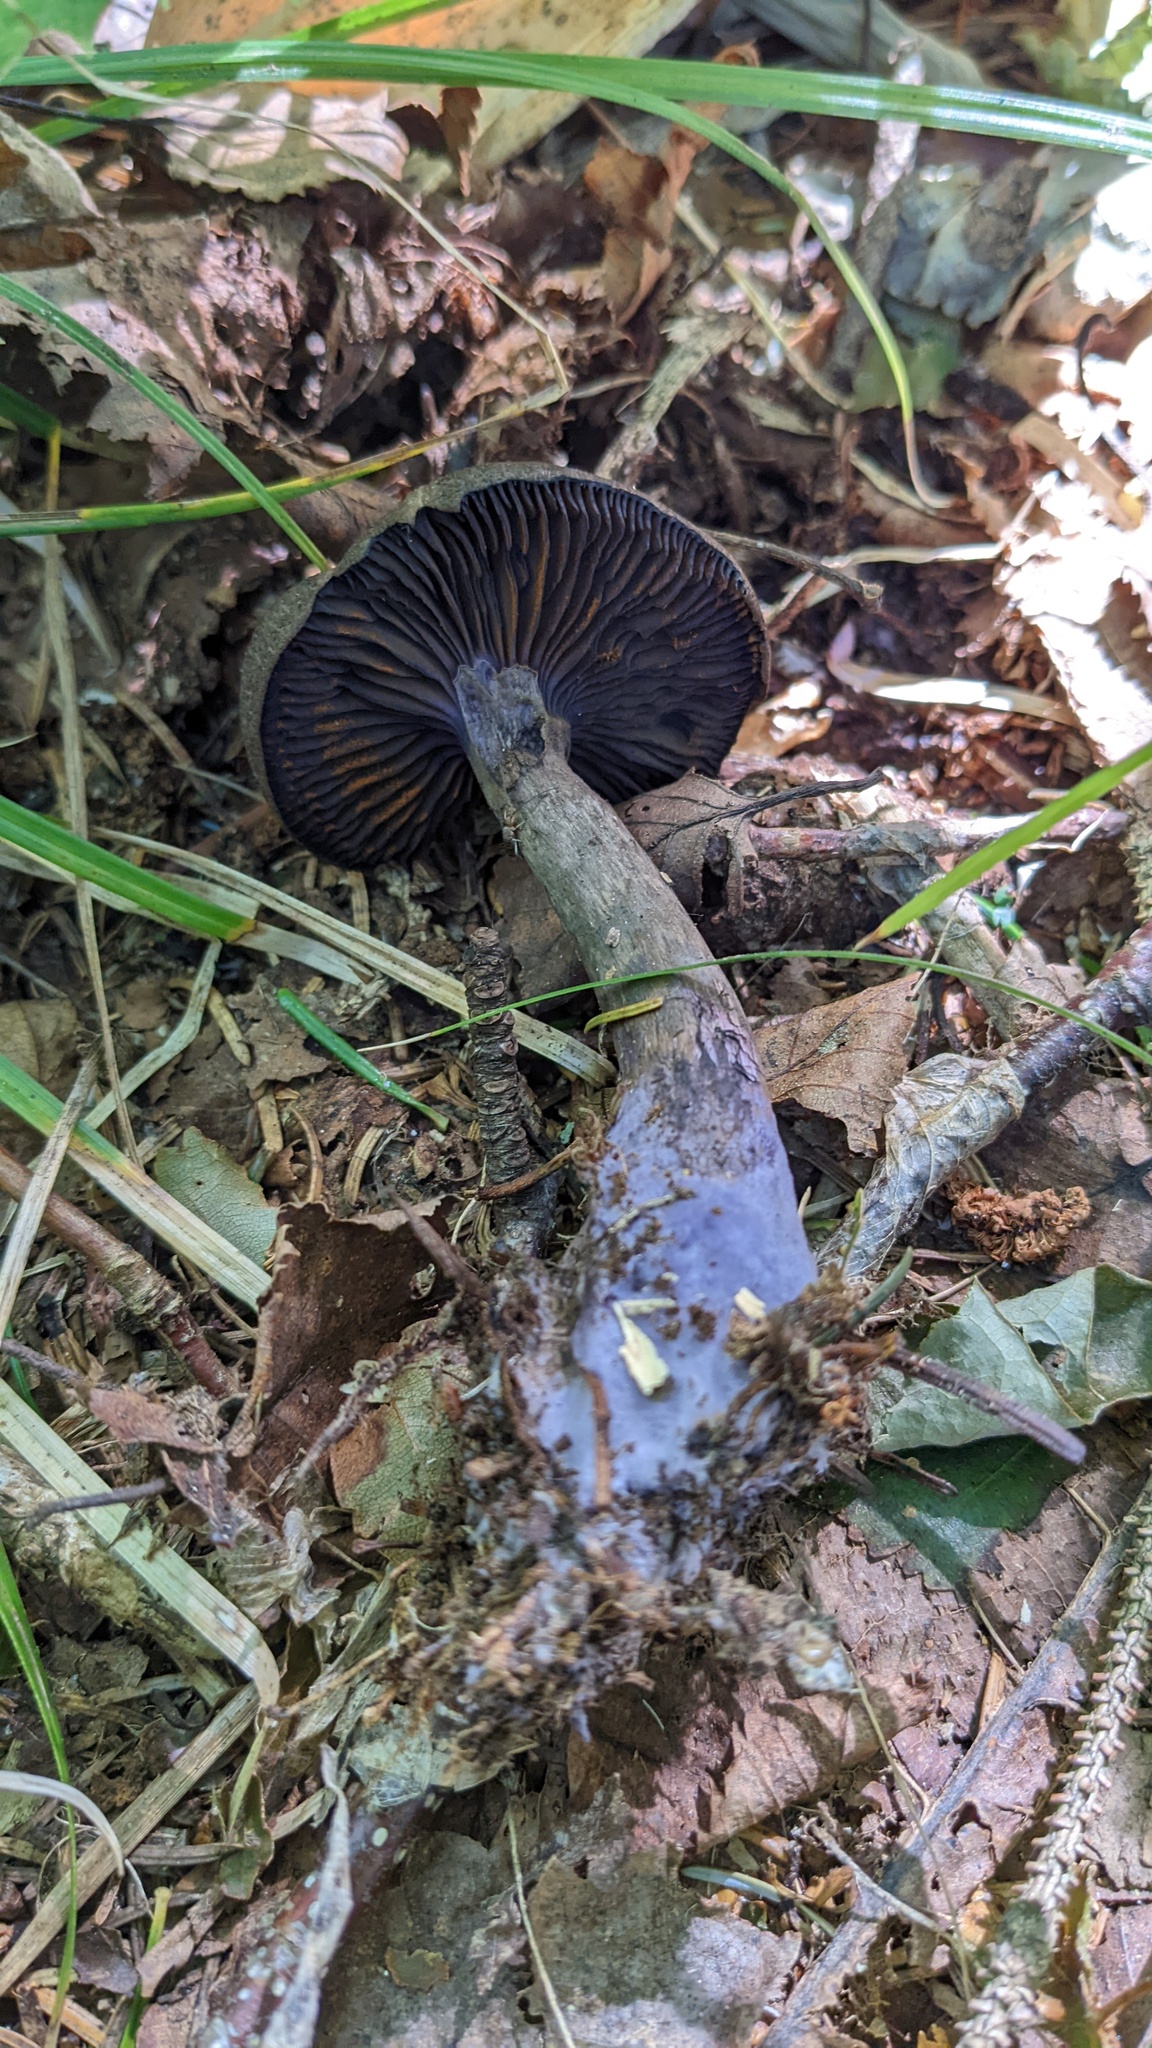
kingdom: Fungi
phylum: Basidiomycota
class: Agaricomycetes
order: Agaricales
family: Cortinariaceae
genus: Cortinarius
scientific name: Cortinarius violaceus
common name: Violet webcap
